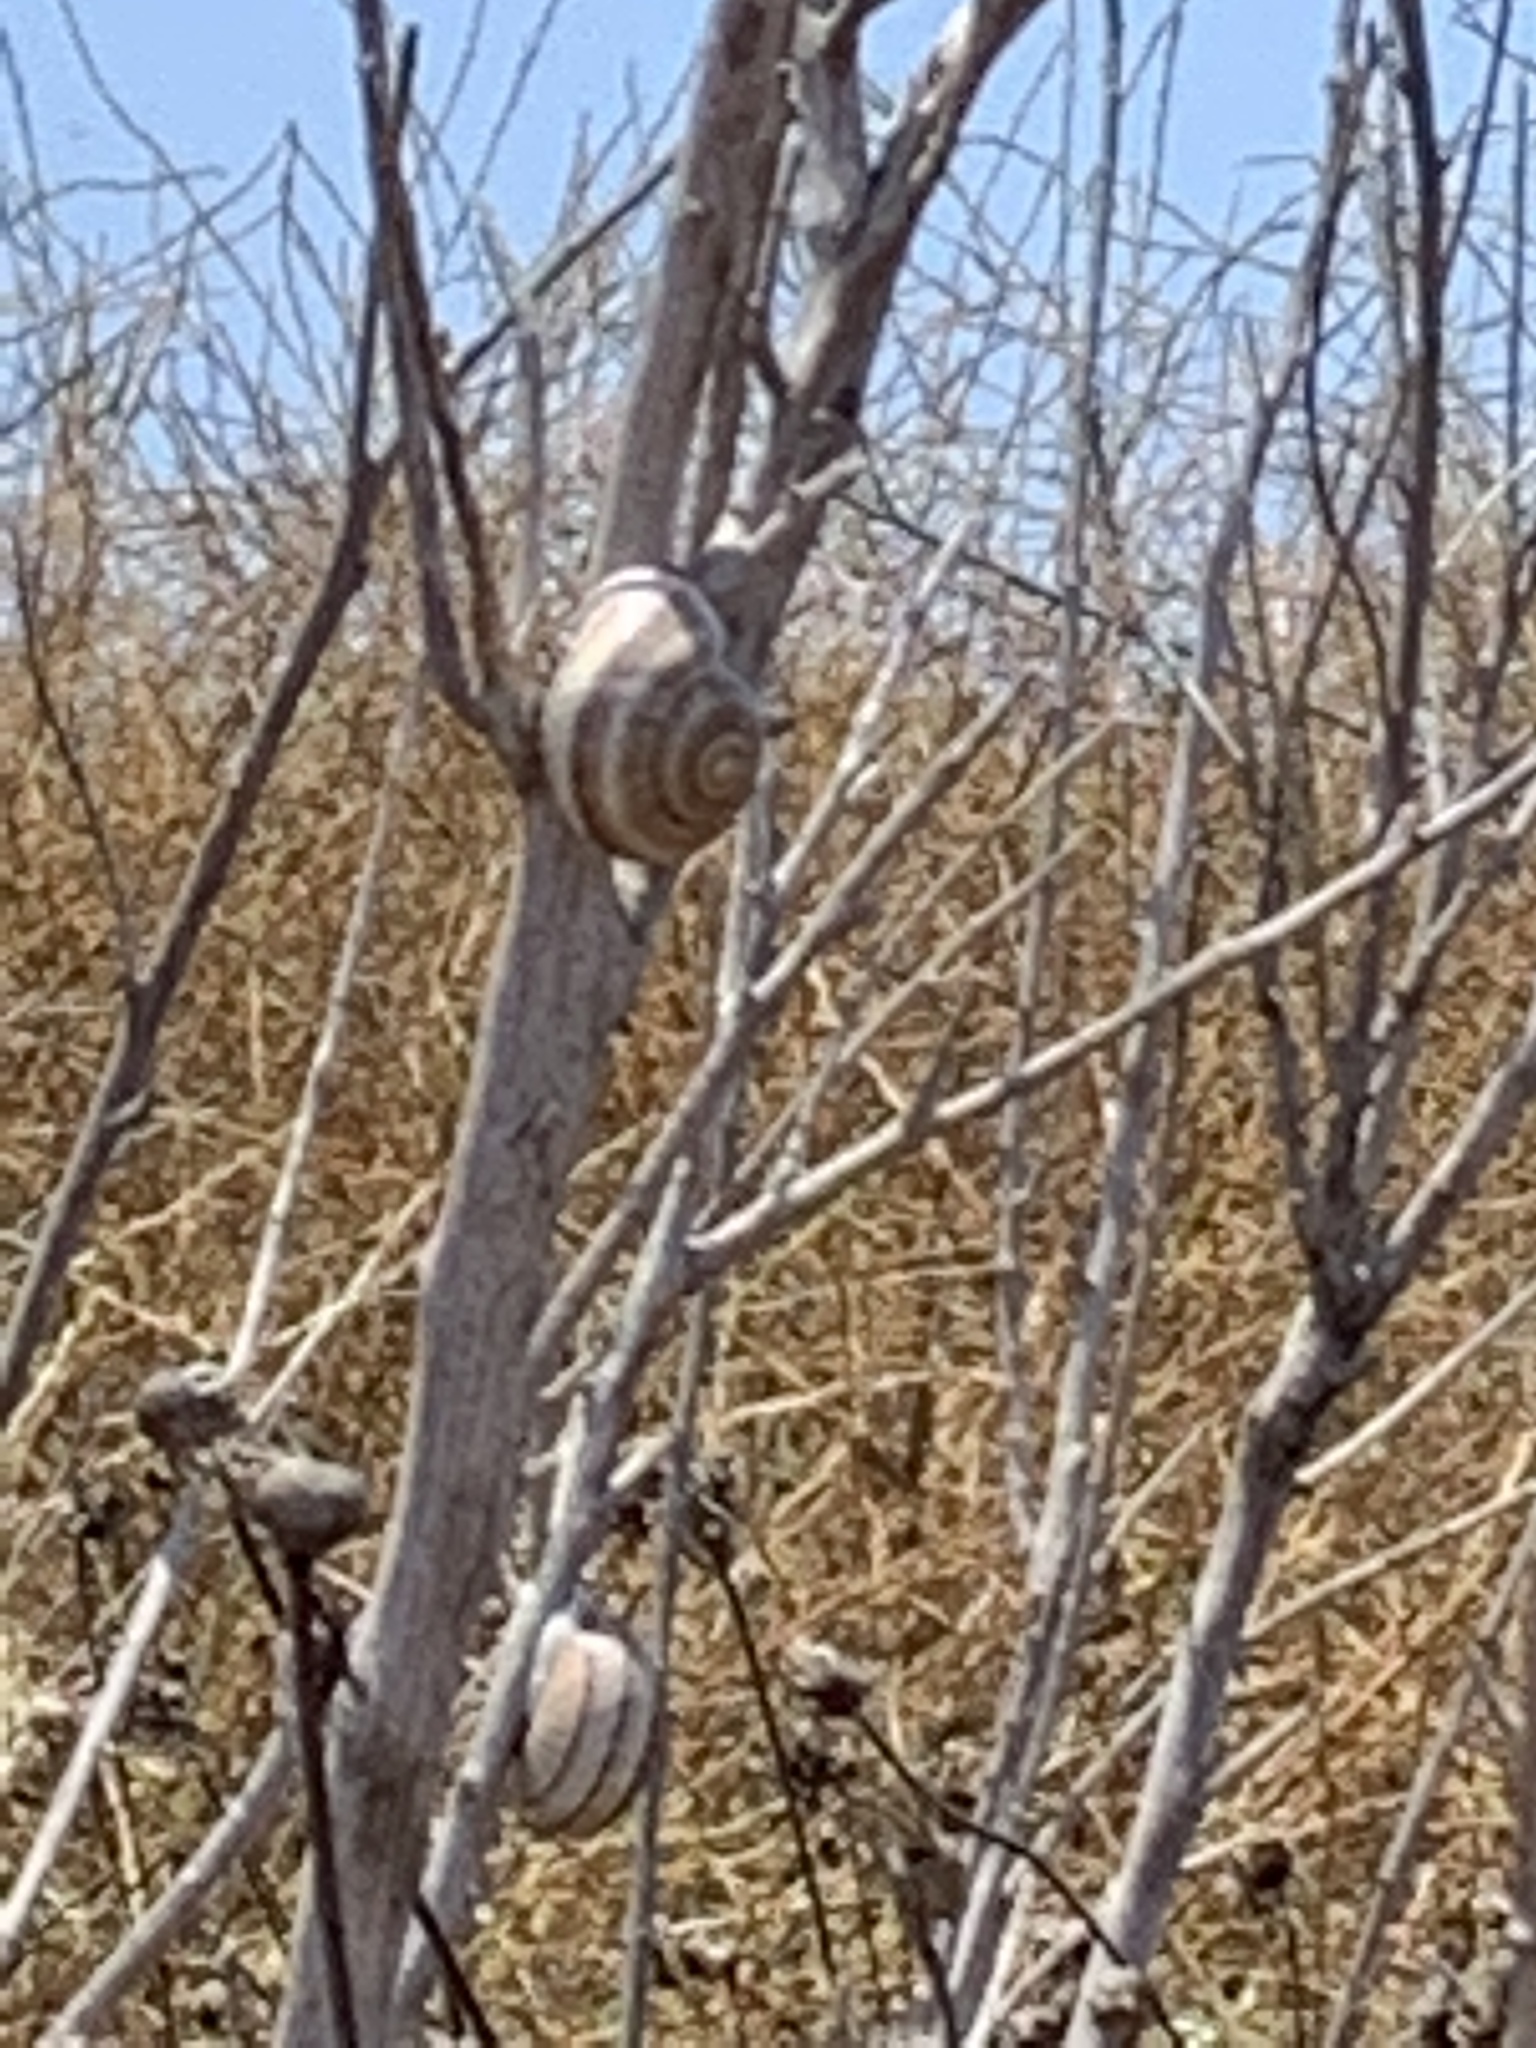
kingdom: Animalia
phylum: Mollusca
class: Gastropoda
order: Stylommatophora
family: Helicidae
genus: Otala
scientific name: Otala lactea
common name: Milk snail
